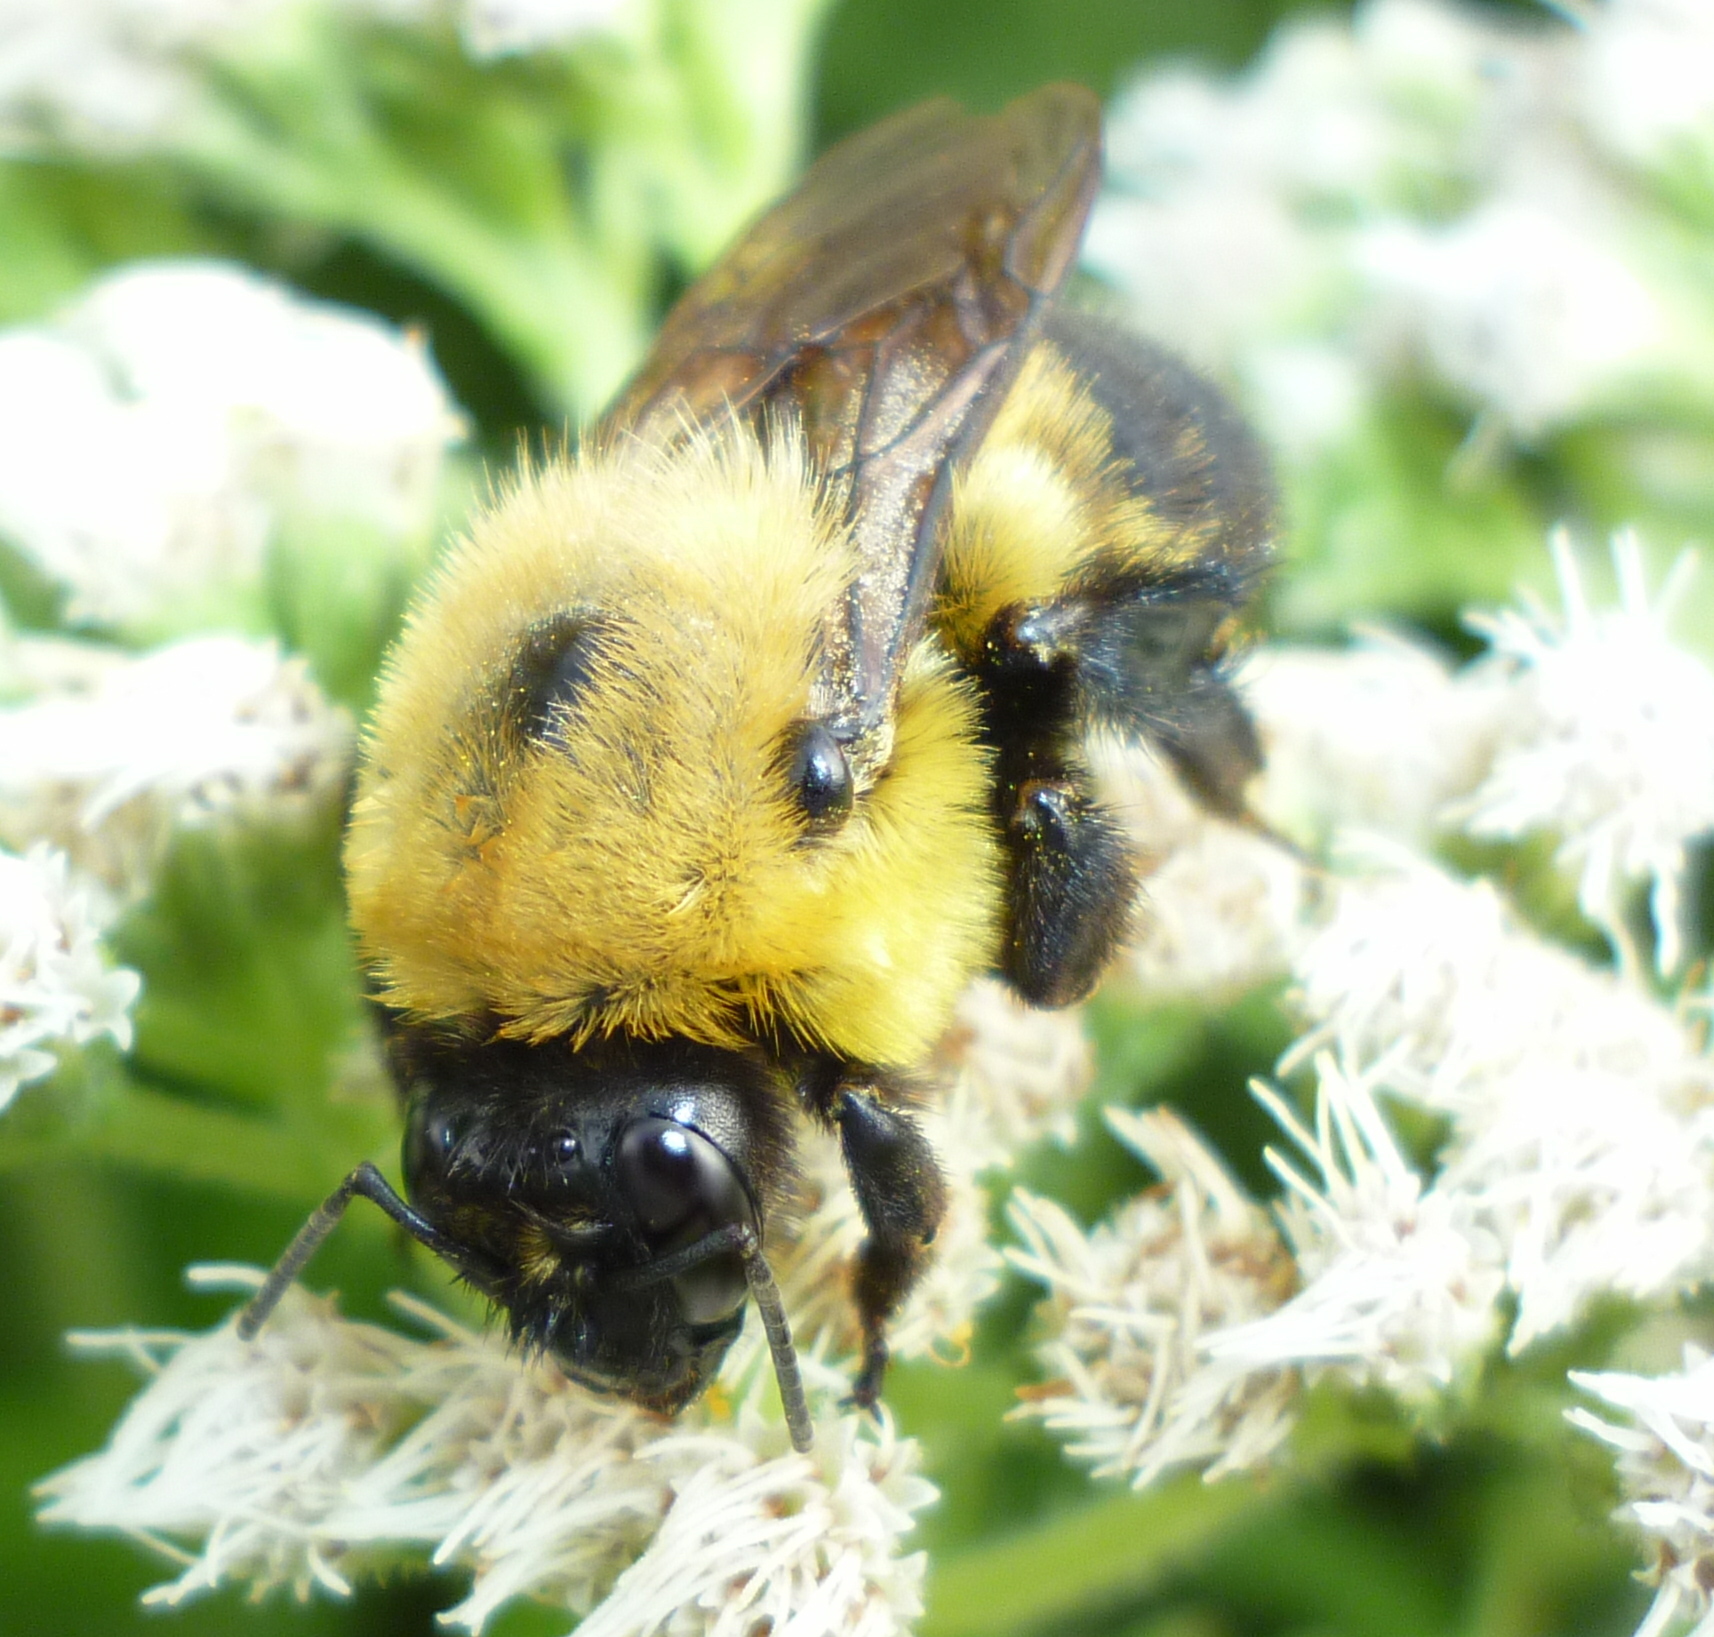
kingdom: Animalia
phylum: Arthropoda
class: Insecta
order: Hymenoptera
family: Apidae
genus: Bombus
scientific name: Bombus griseocollis
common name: Brown-belted bumble bee
